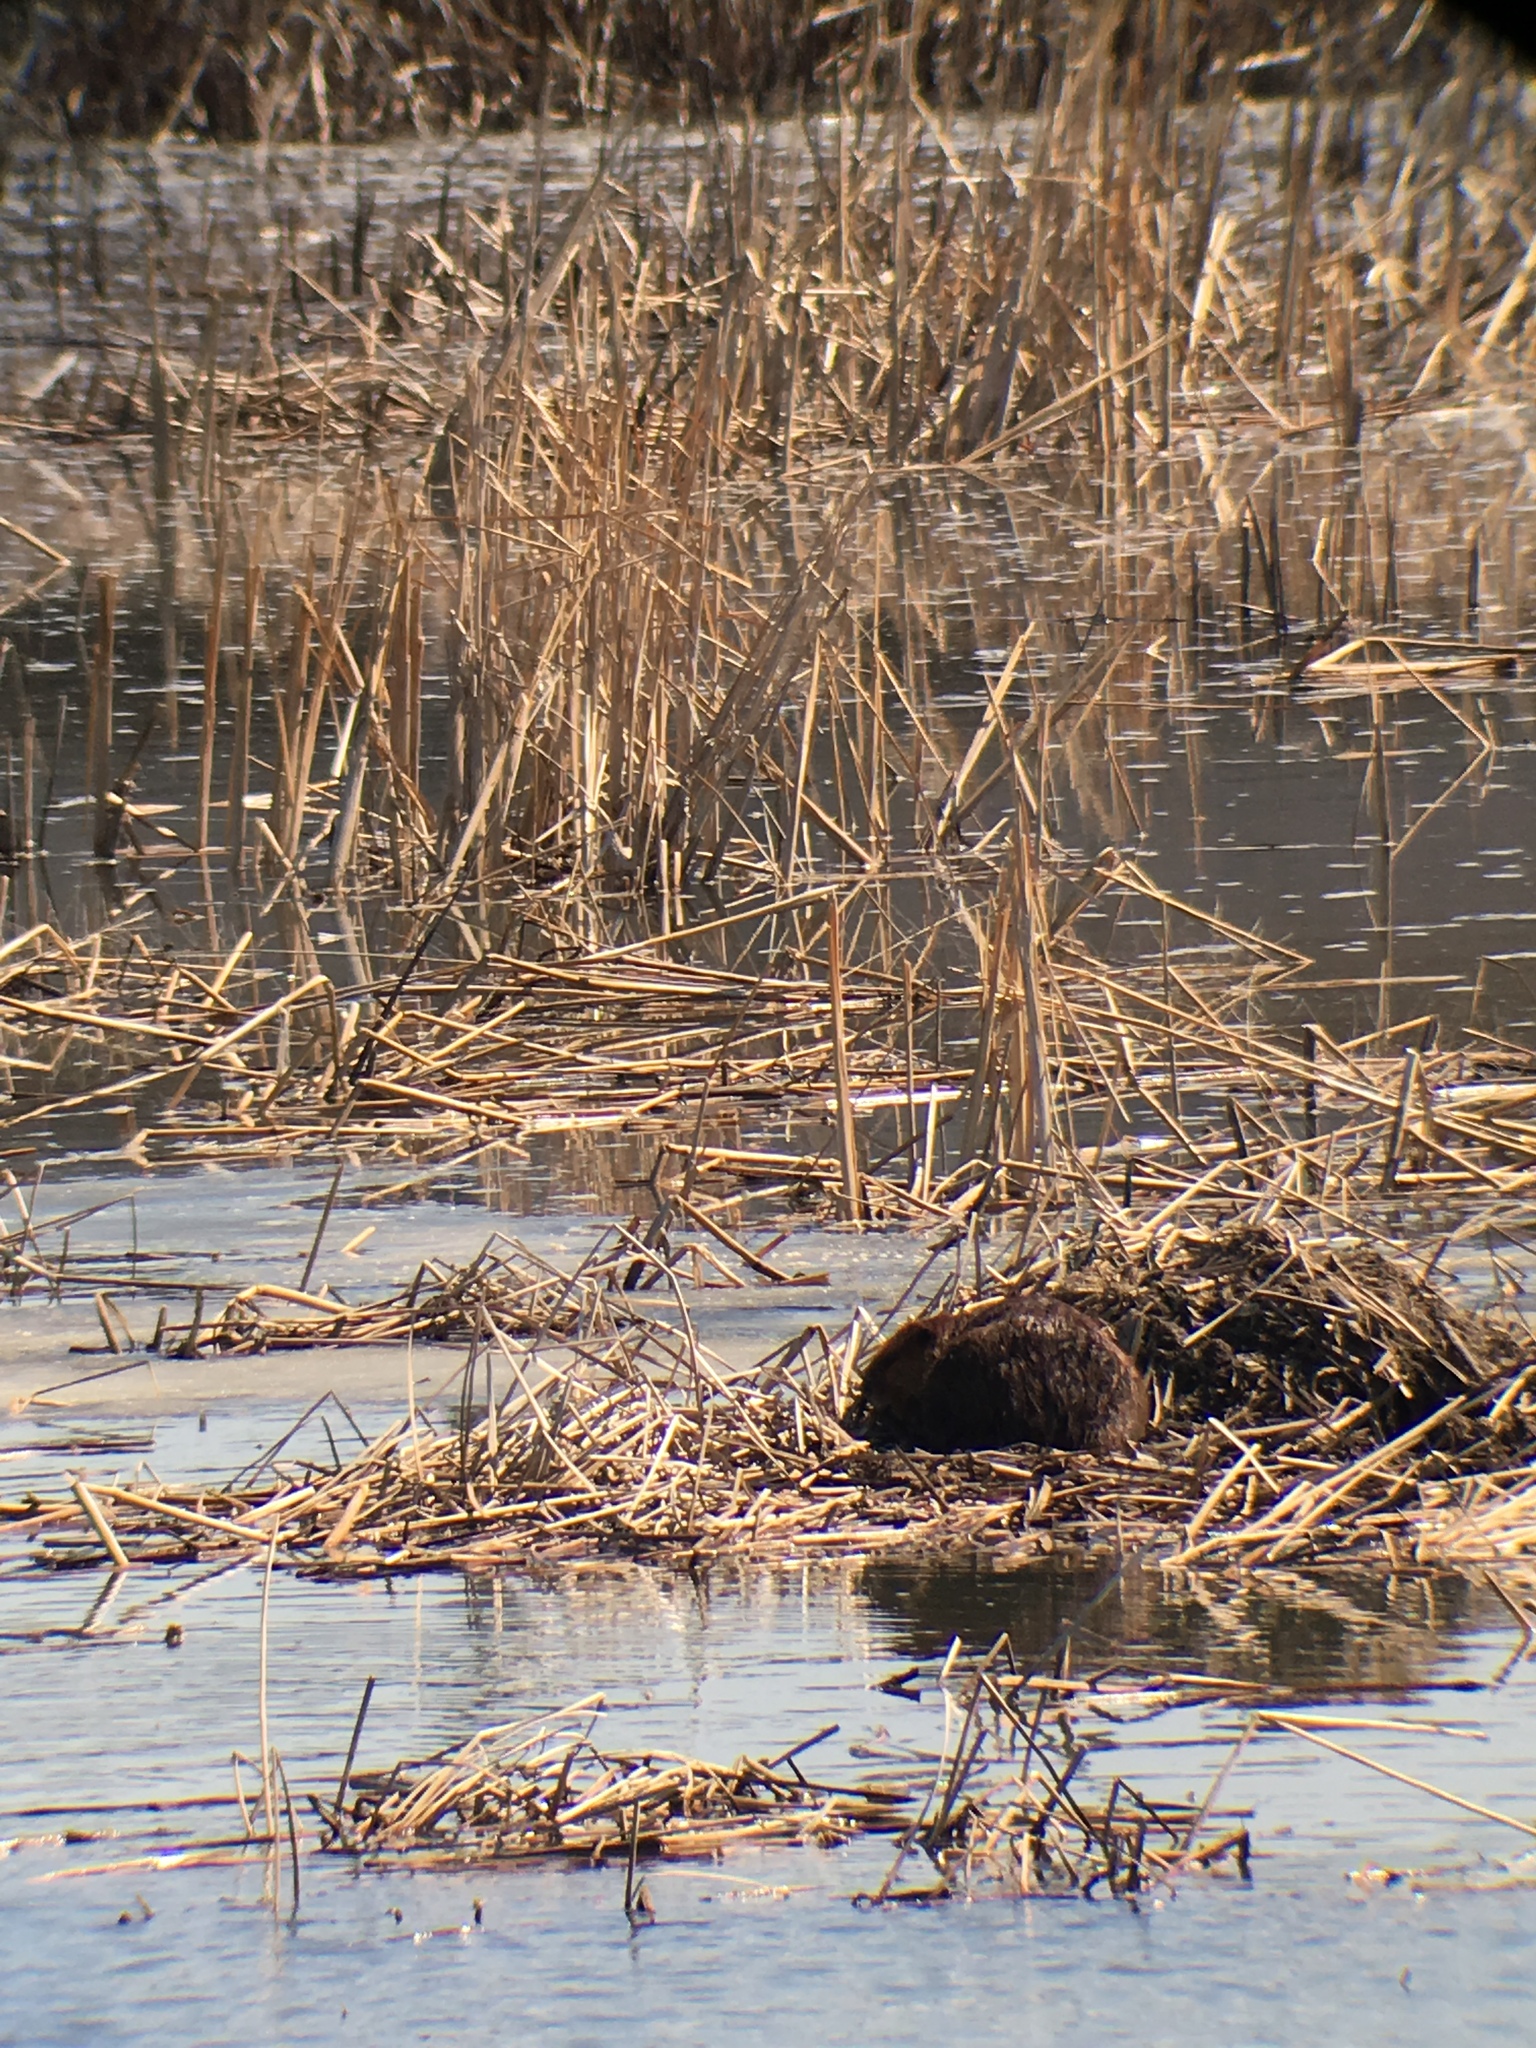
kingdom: Animalia
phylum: Chordata
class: Mammalia
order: Rodentia
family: Castoridae
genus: Castor
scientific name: Castor canadensis
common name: American beaver
